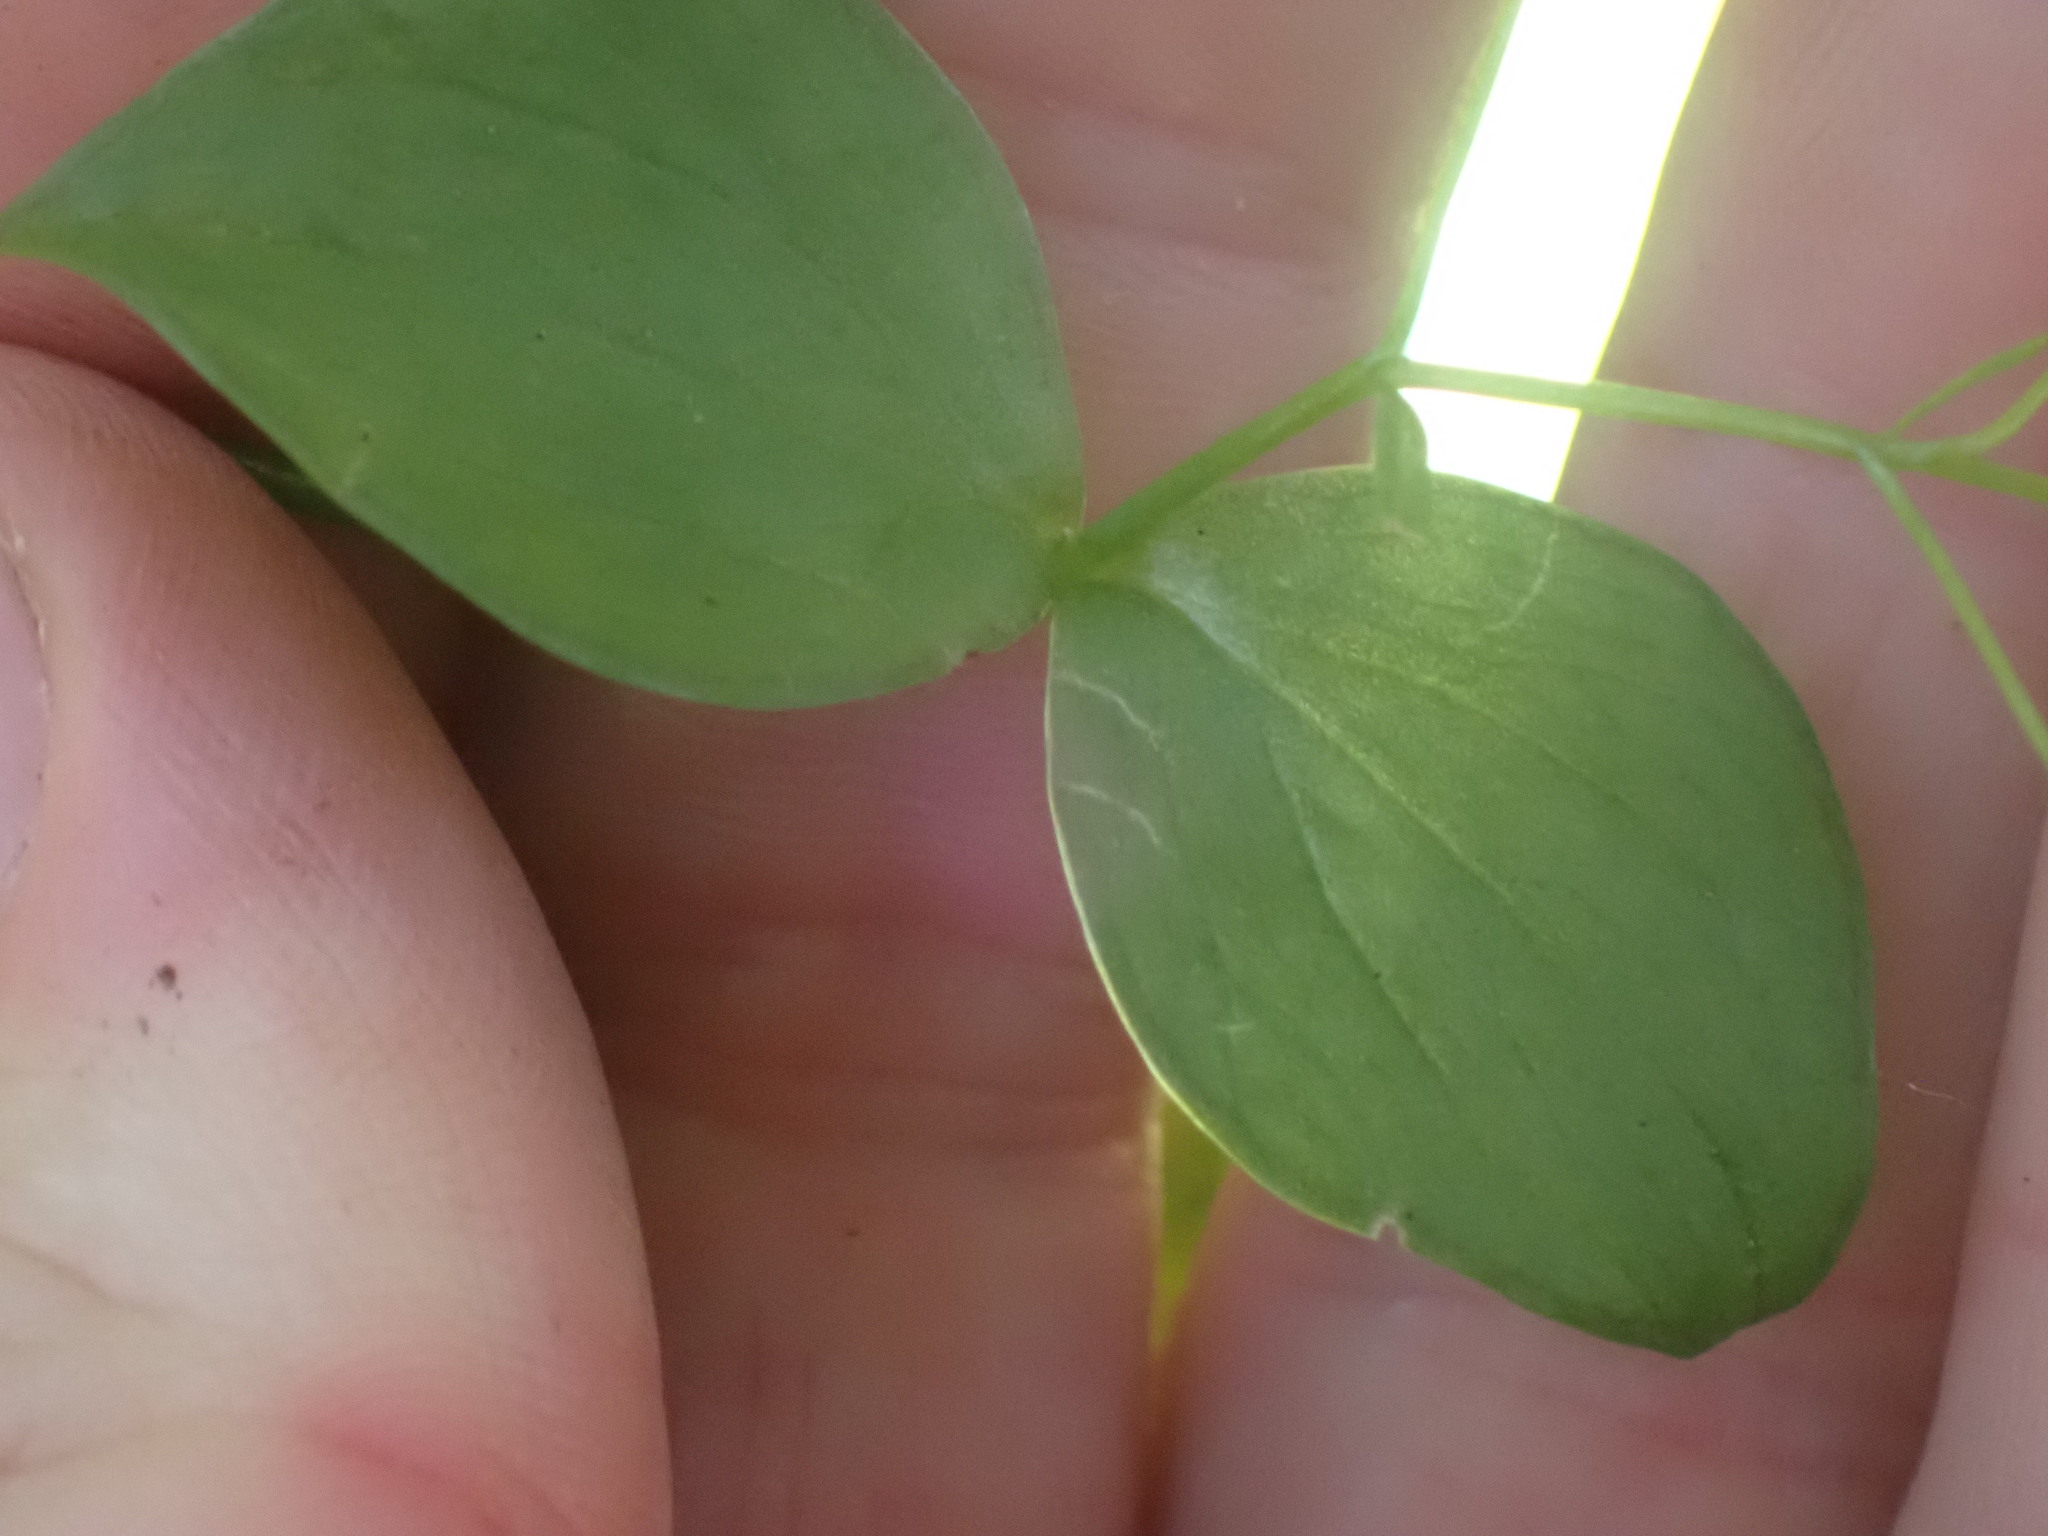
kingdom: Plantae
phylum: Tracheophyta
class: Magnoliopsida
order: Caryophyllales
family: Montiaceae
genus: Claytonia
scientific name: Claytonia sibirica
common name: Pink purslane
